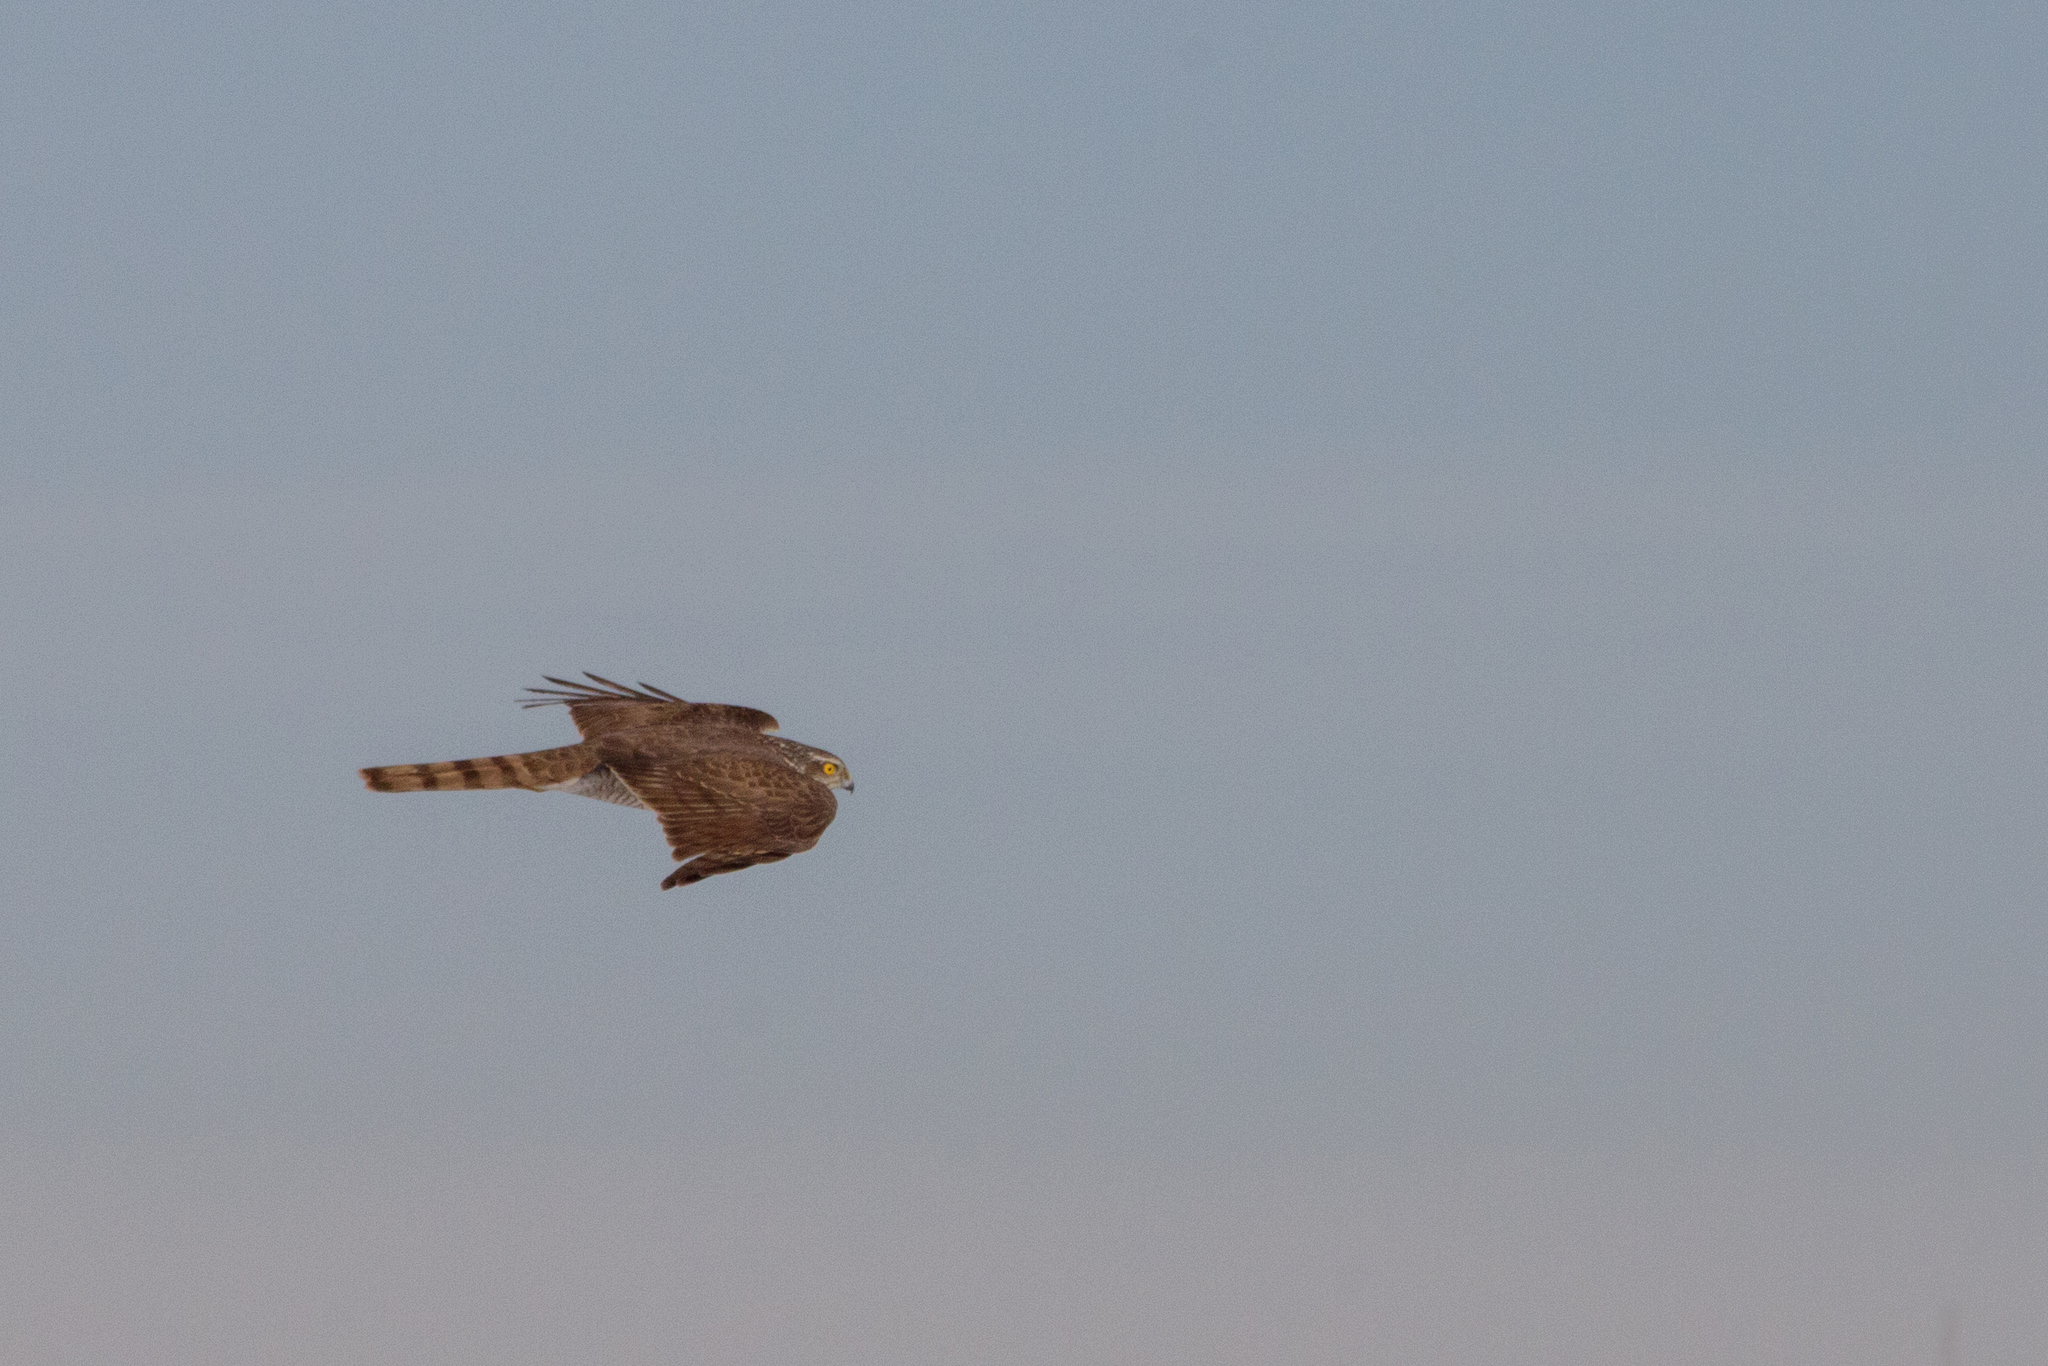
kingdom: Animalia
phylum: Chordata
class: Aves
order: Accipitriformes
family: Accipitridae
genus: Accipiter
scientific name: Accipiter nisus
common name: Eurasian sparrowhawk
